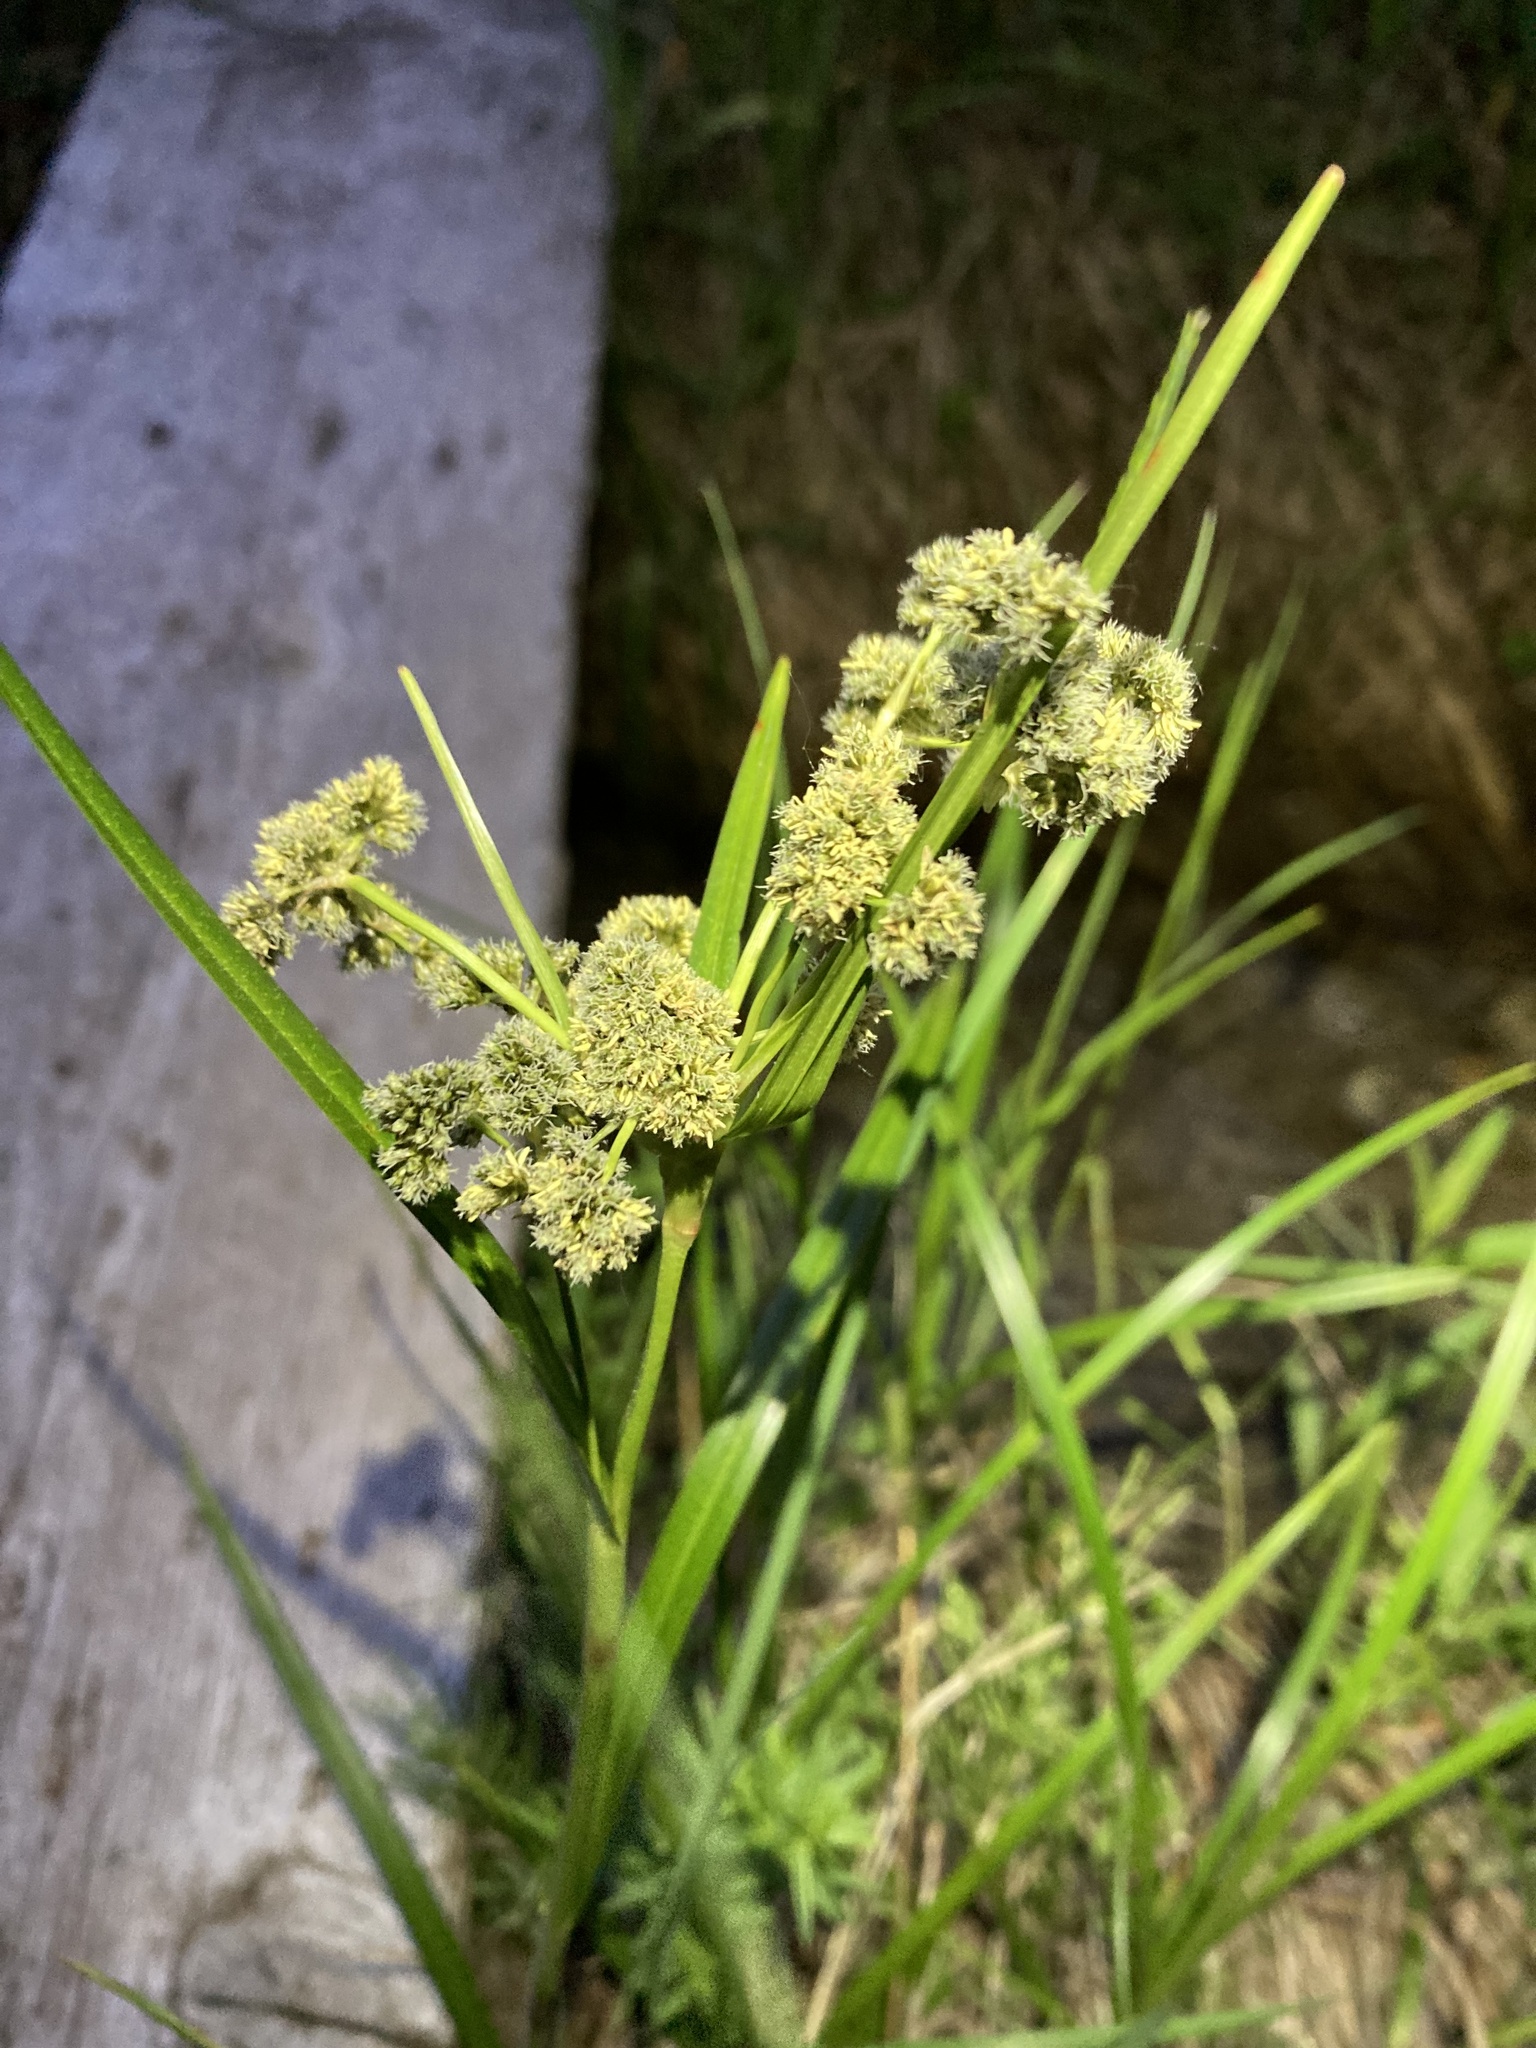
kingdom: Plantae
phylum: Tracheophyta
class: Liliopsida
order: Poales
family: Cyperaceae
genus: Scirpus
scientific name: Scirpus microcarpus
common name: Panicled bulrush
